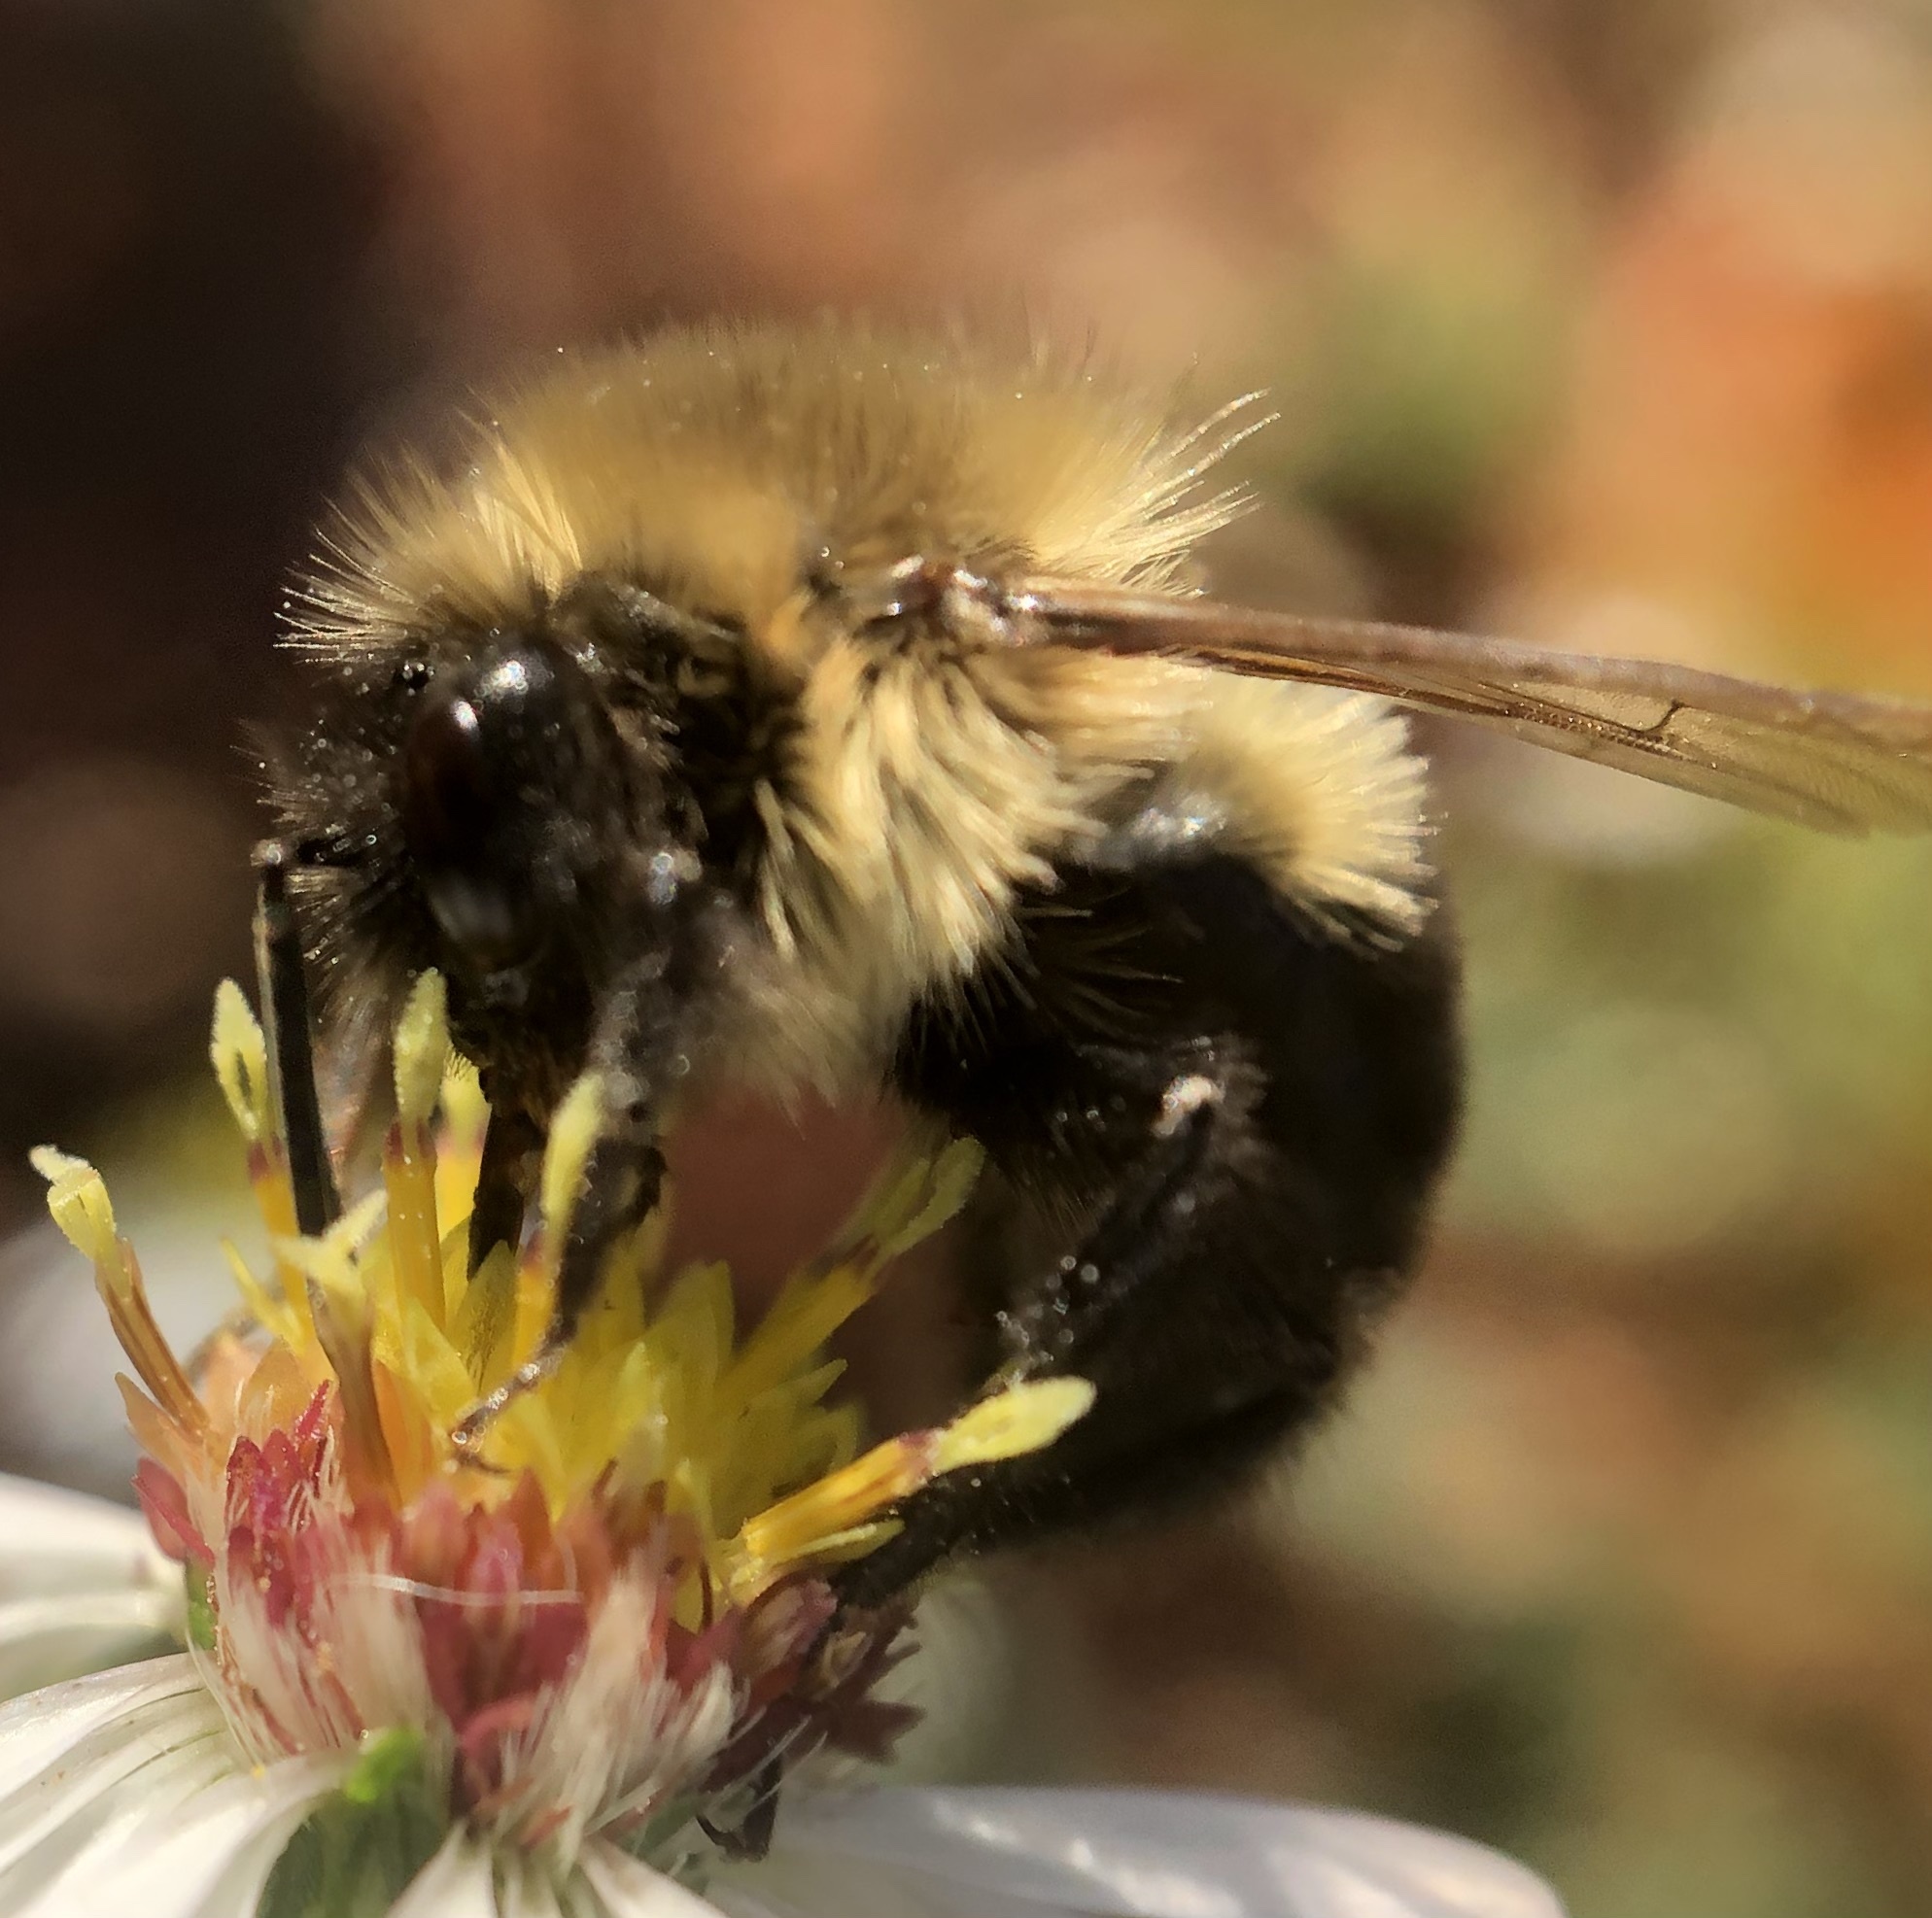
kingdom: Animalia
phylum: Arthropoda
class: Insecta
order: Hymenoptera
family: Apidae
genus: Bombus
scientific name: Bombus impatiens
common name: Common eastern bumble bee
